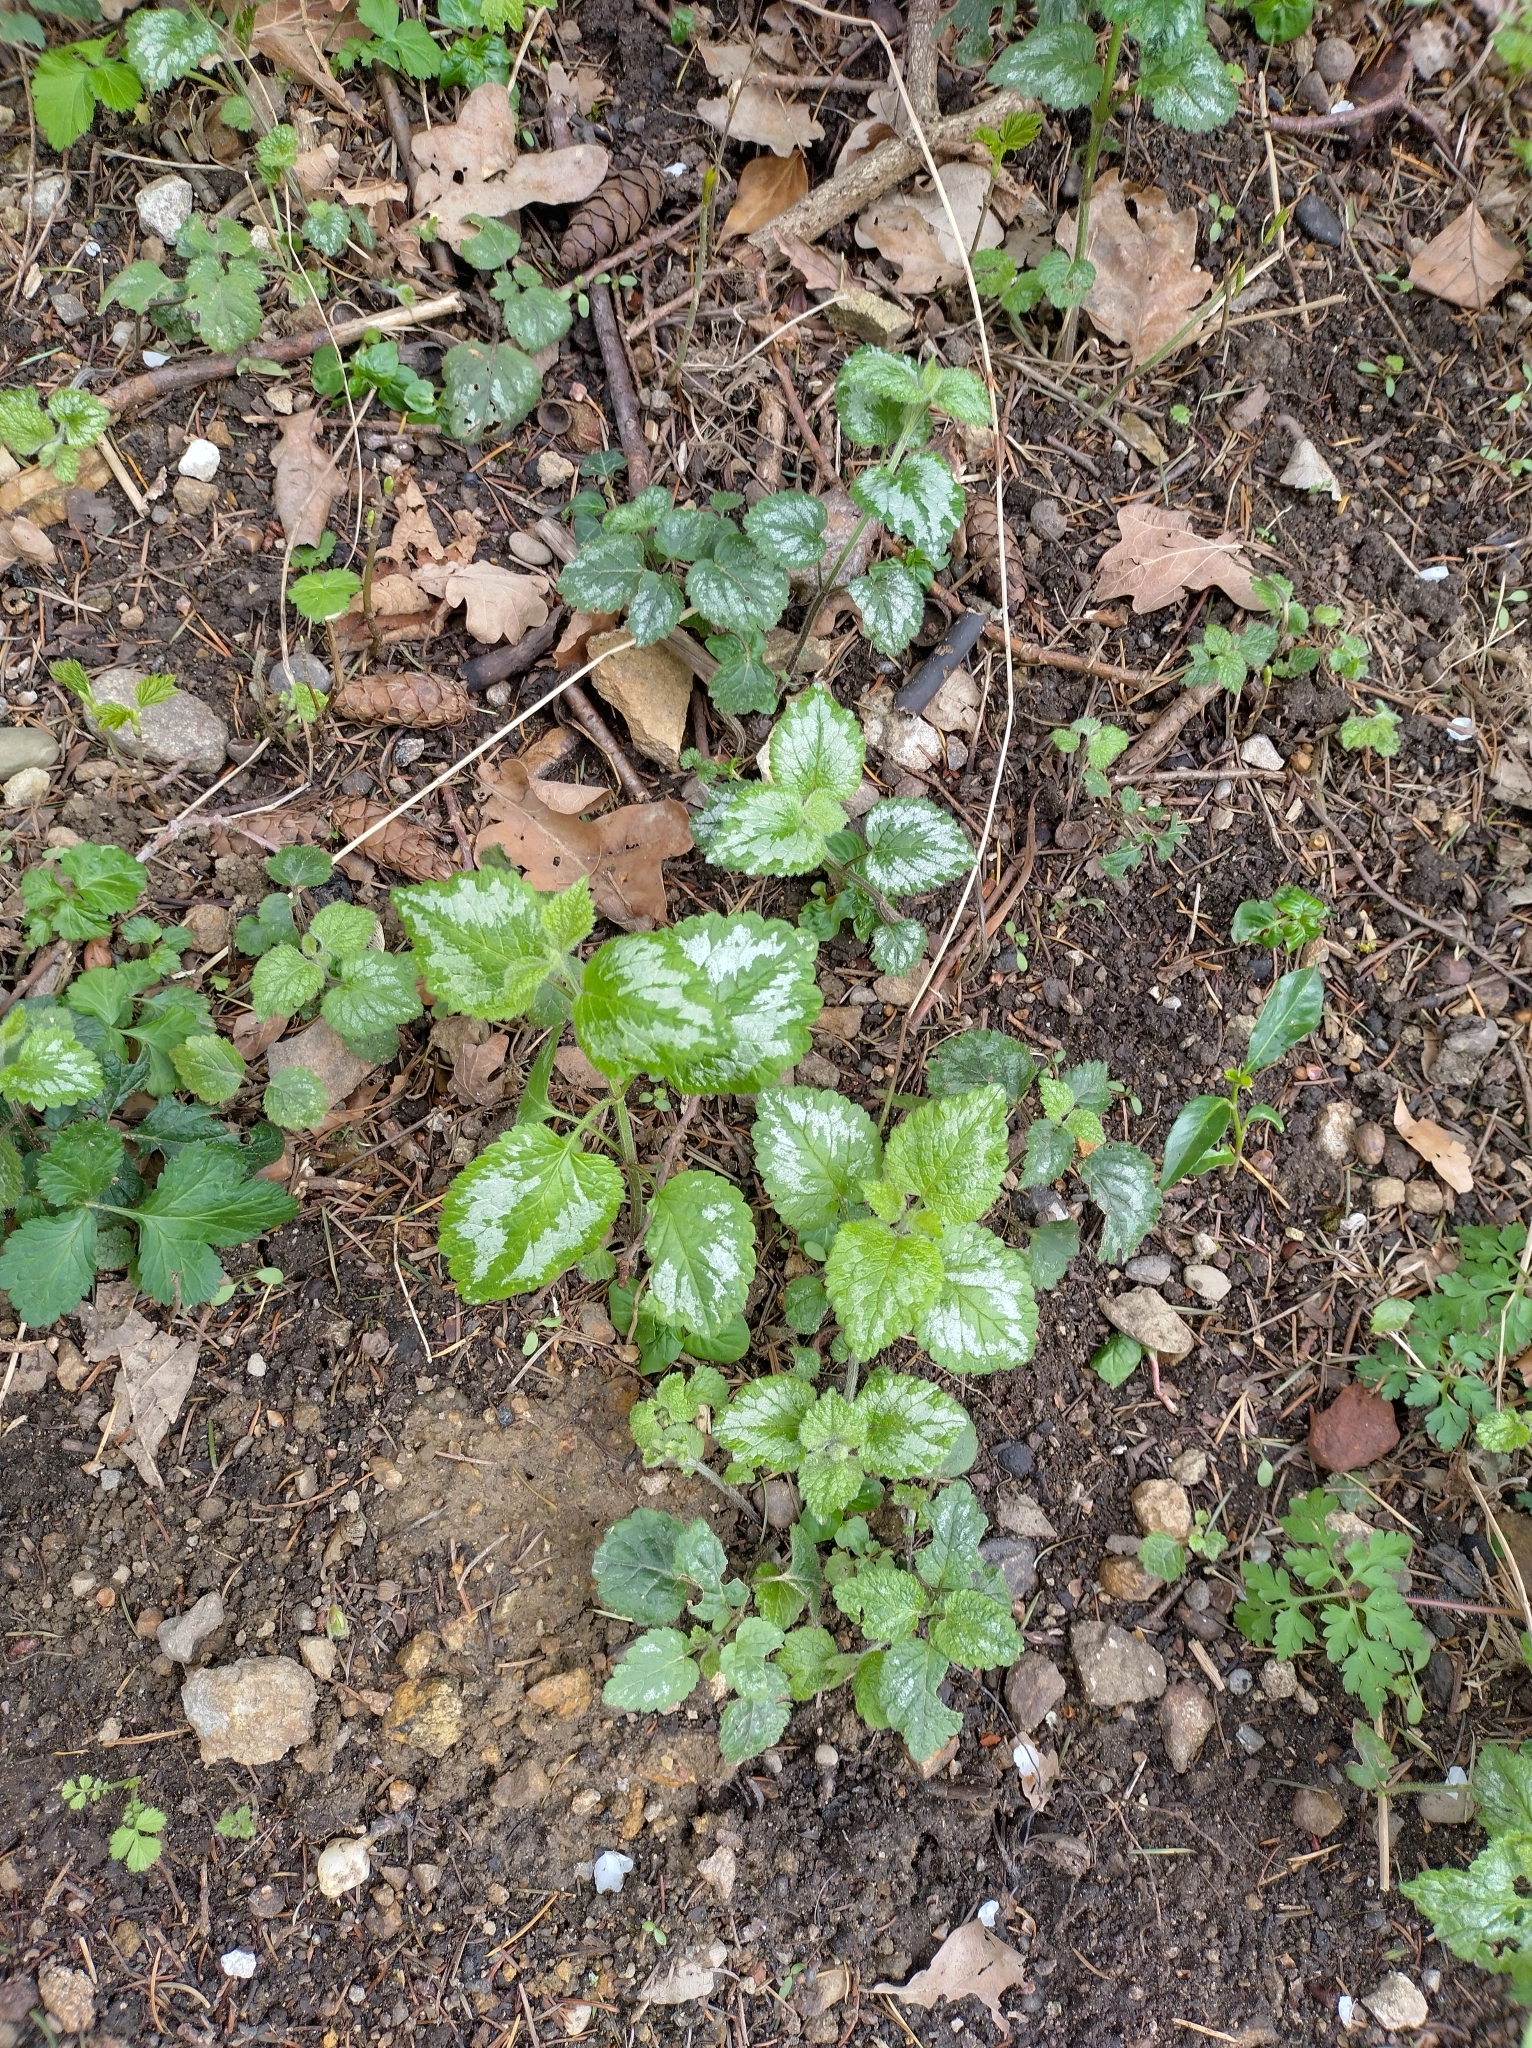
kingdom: Plantae
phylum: Tracheophyta
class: Magnoliopsida
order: Lamiales
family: Lamiaceae
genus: Lamium
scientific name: Lamium galeobdolon
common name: Yellow archangel
